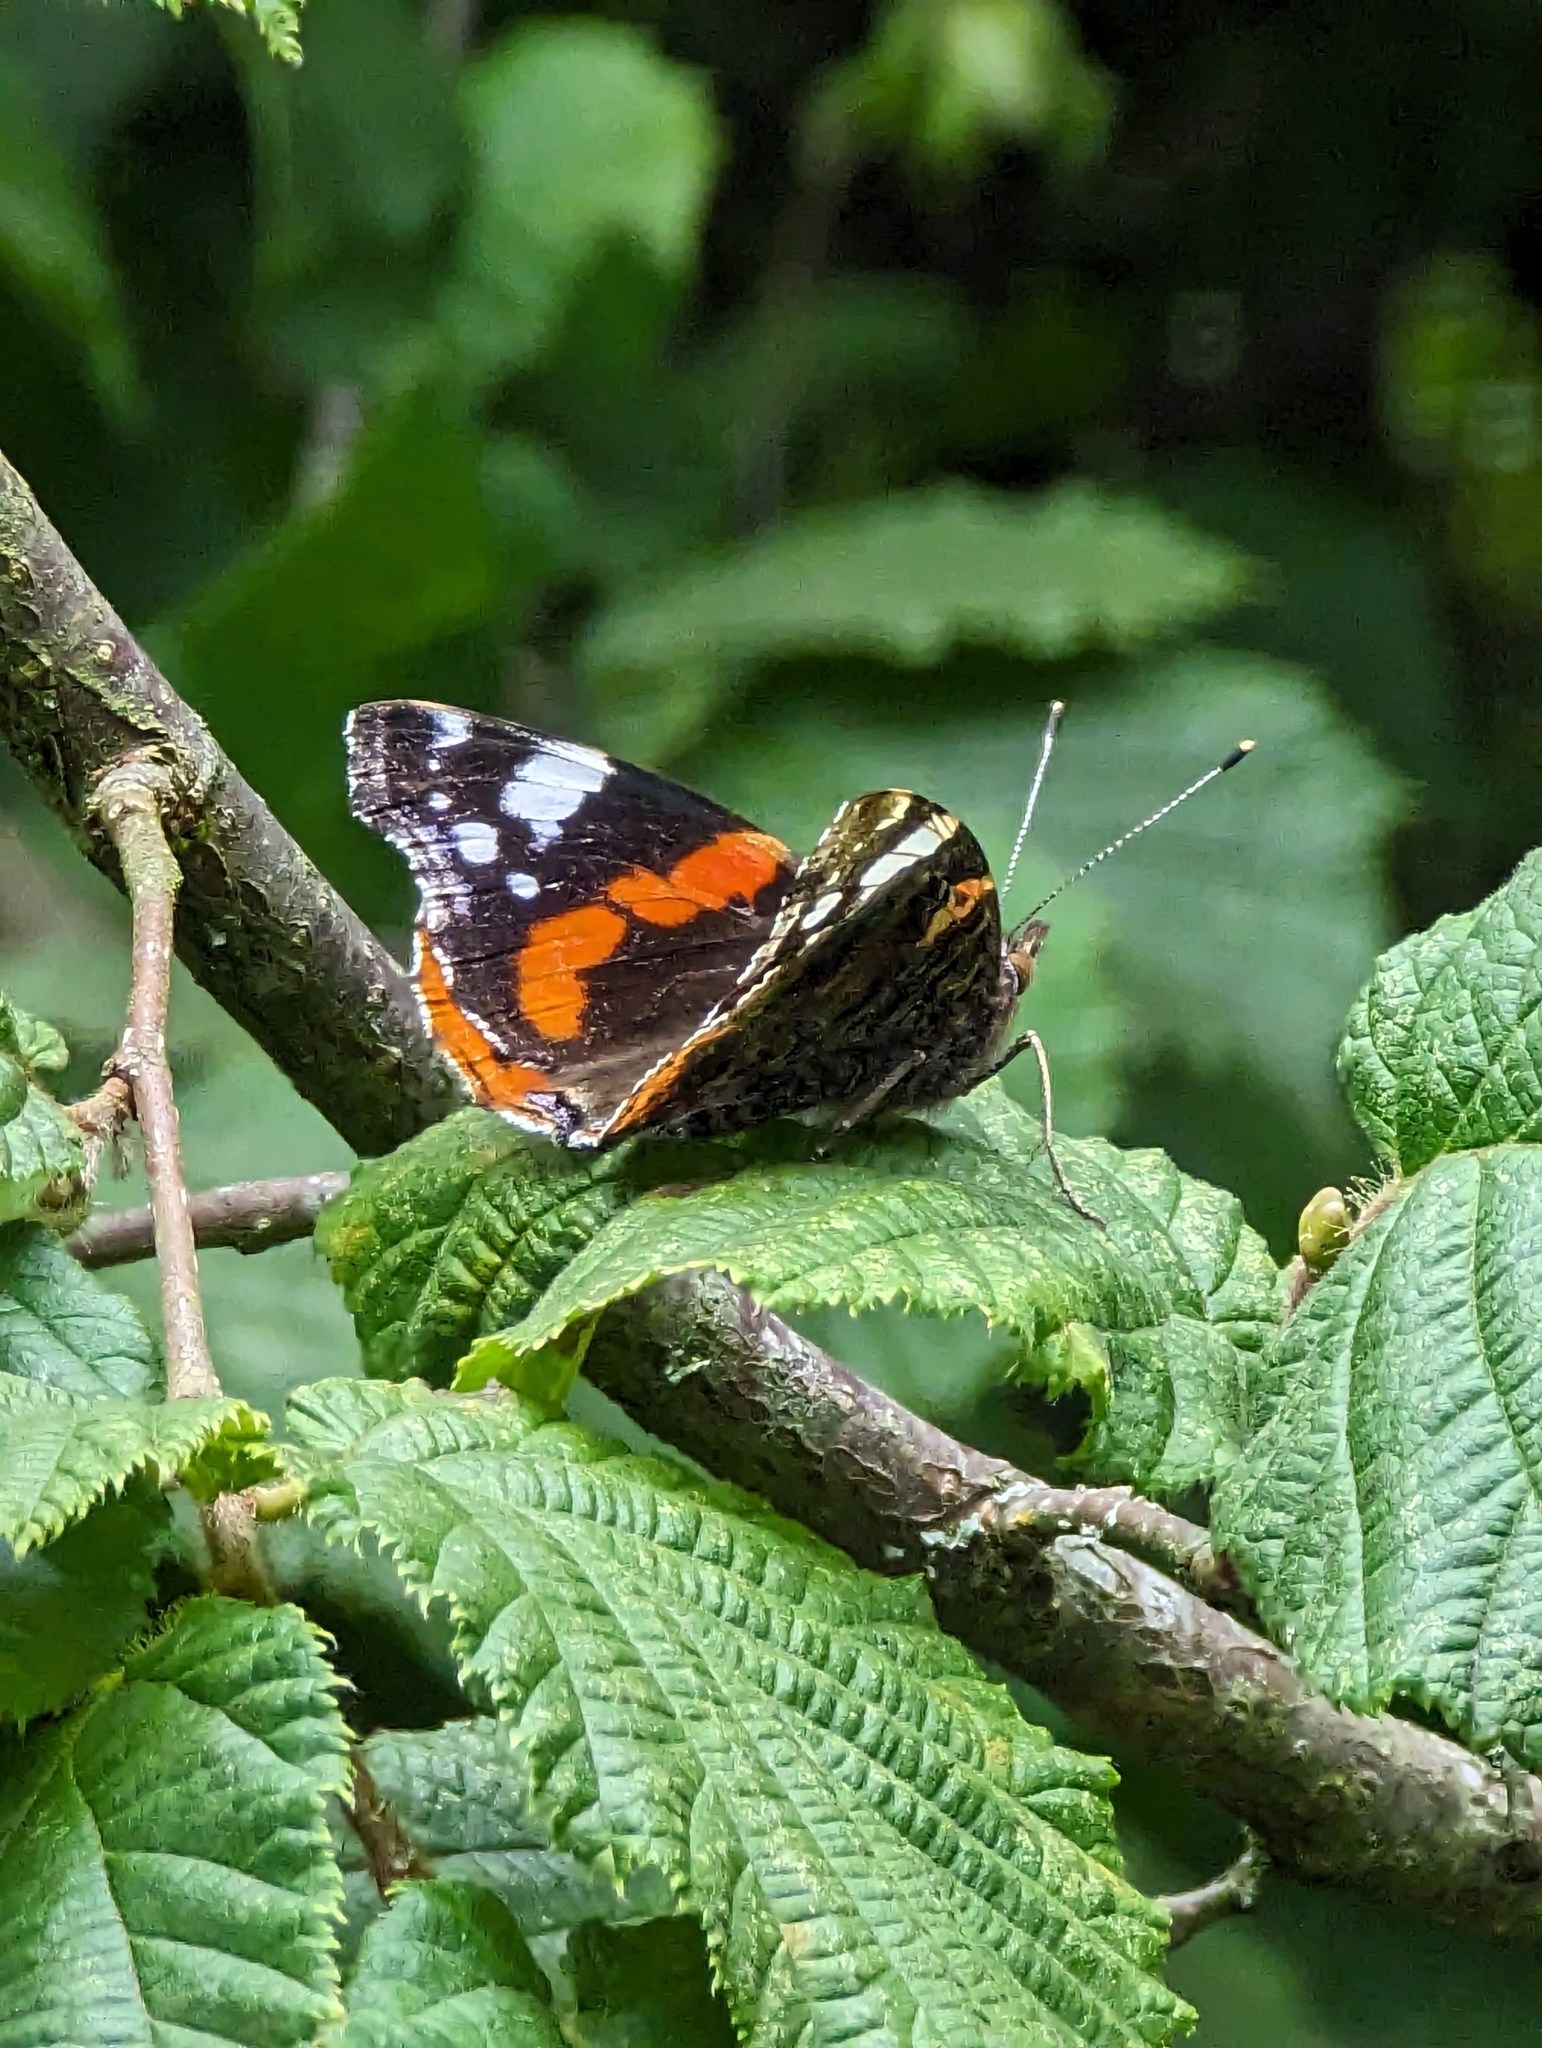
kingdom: Animalia
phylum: Arthropoda
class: Insecta
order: Lepidoptera
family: Nymphalidae
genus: Vanessa
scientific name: Vanessa atalanta
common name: Red admiral
